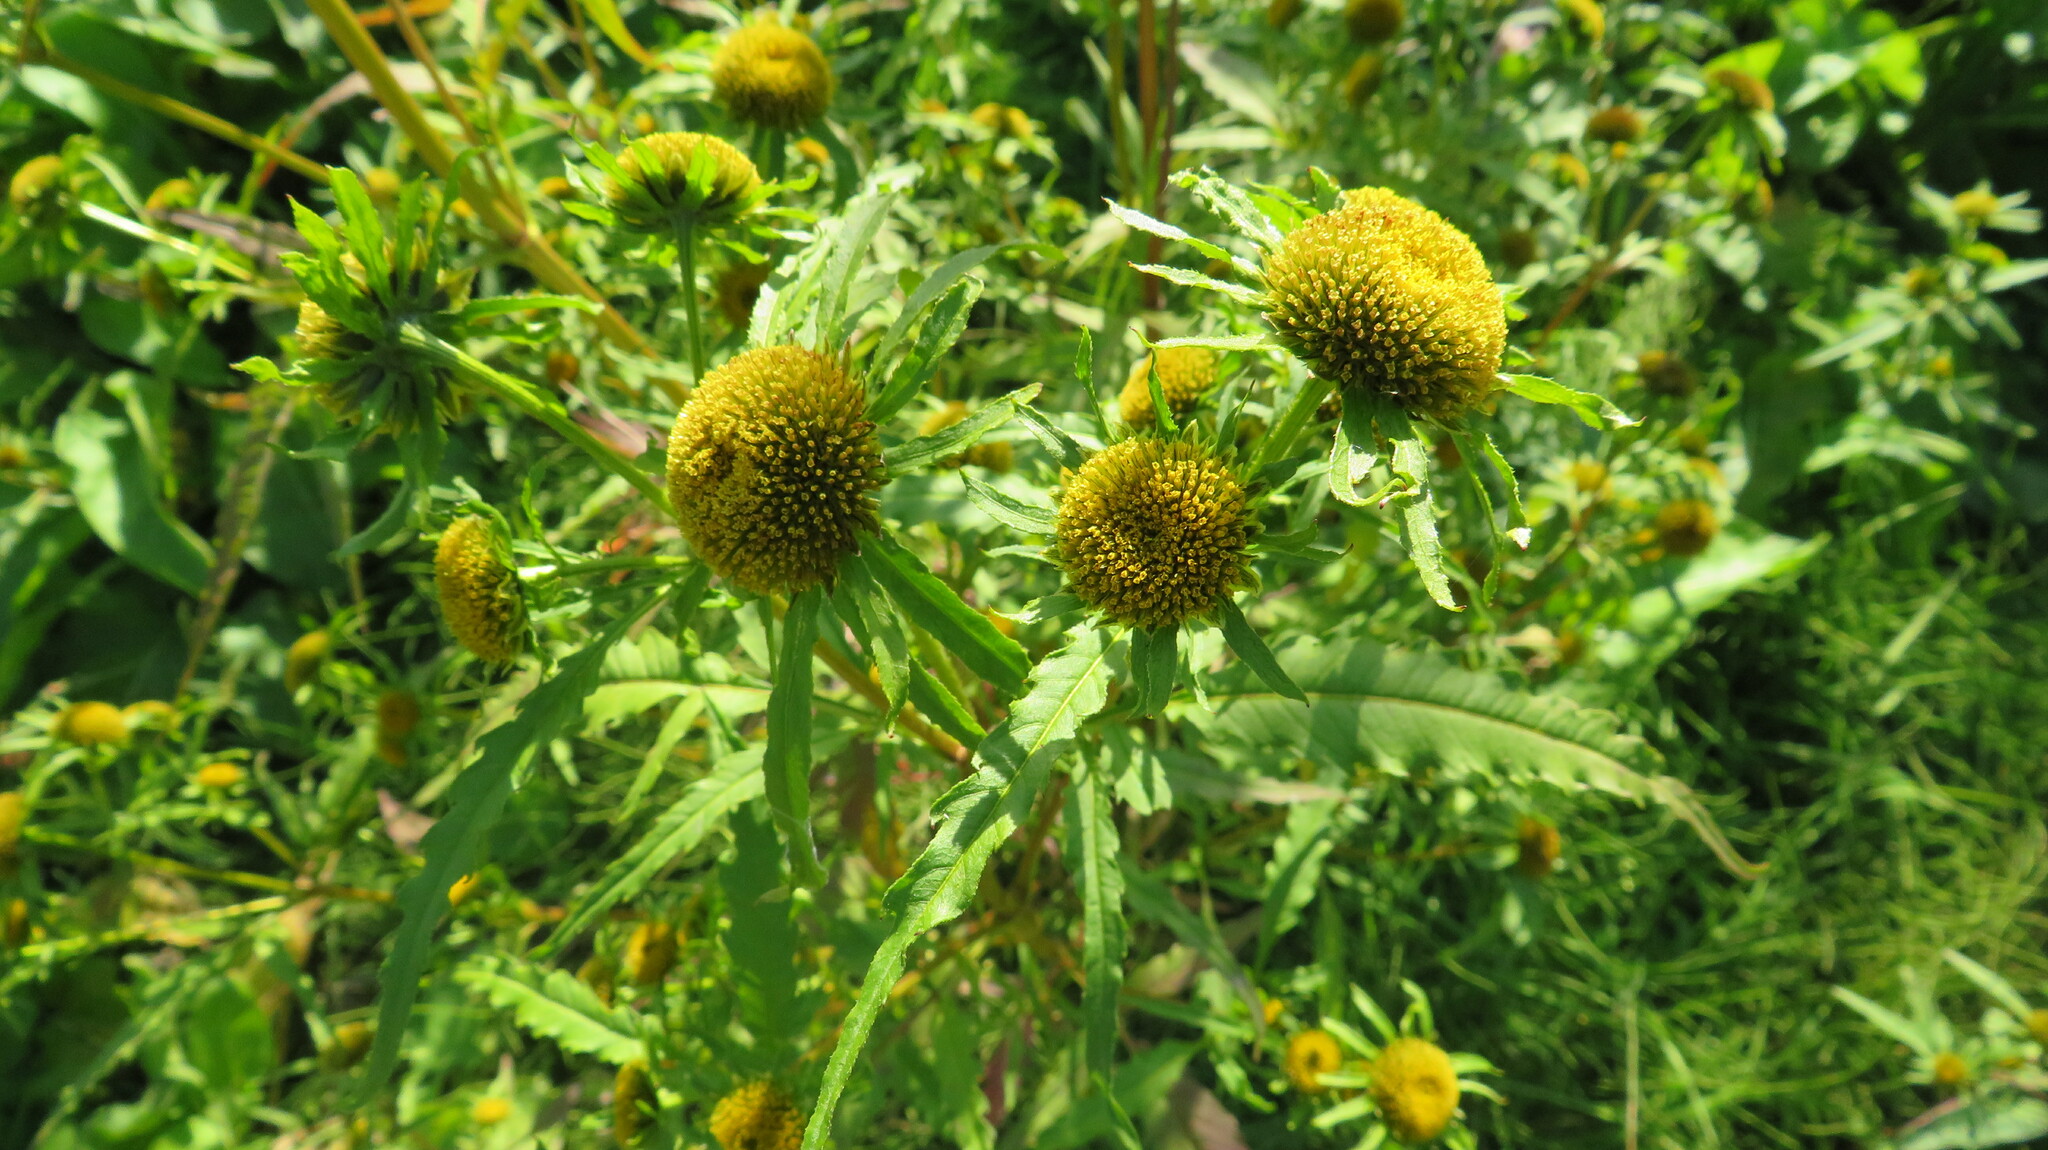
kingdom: Plantae
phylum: Tracheophyta
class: Magnoliopsida
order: Asterales
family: Asteraceae
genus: Bidens
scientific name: Bidens radiata
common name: Radiating bur-marigold
